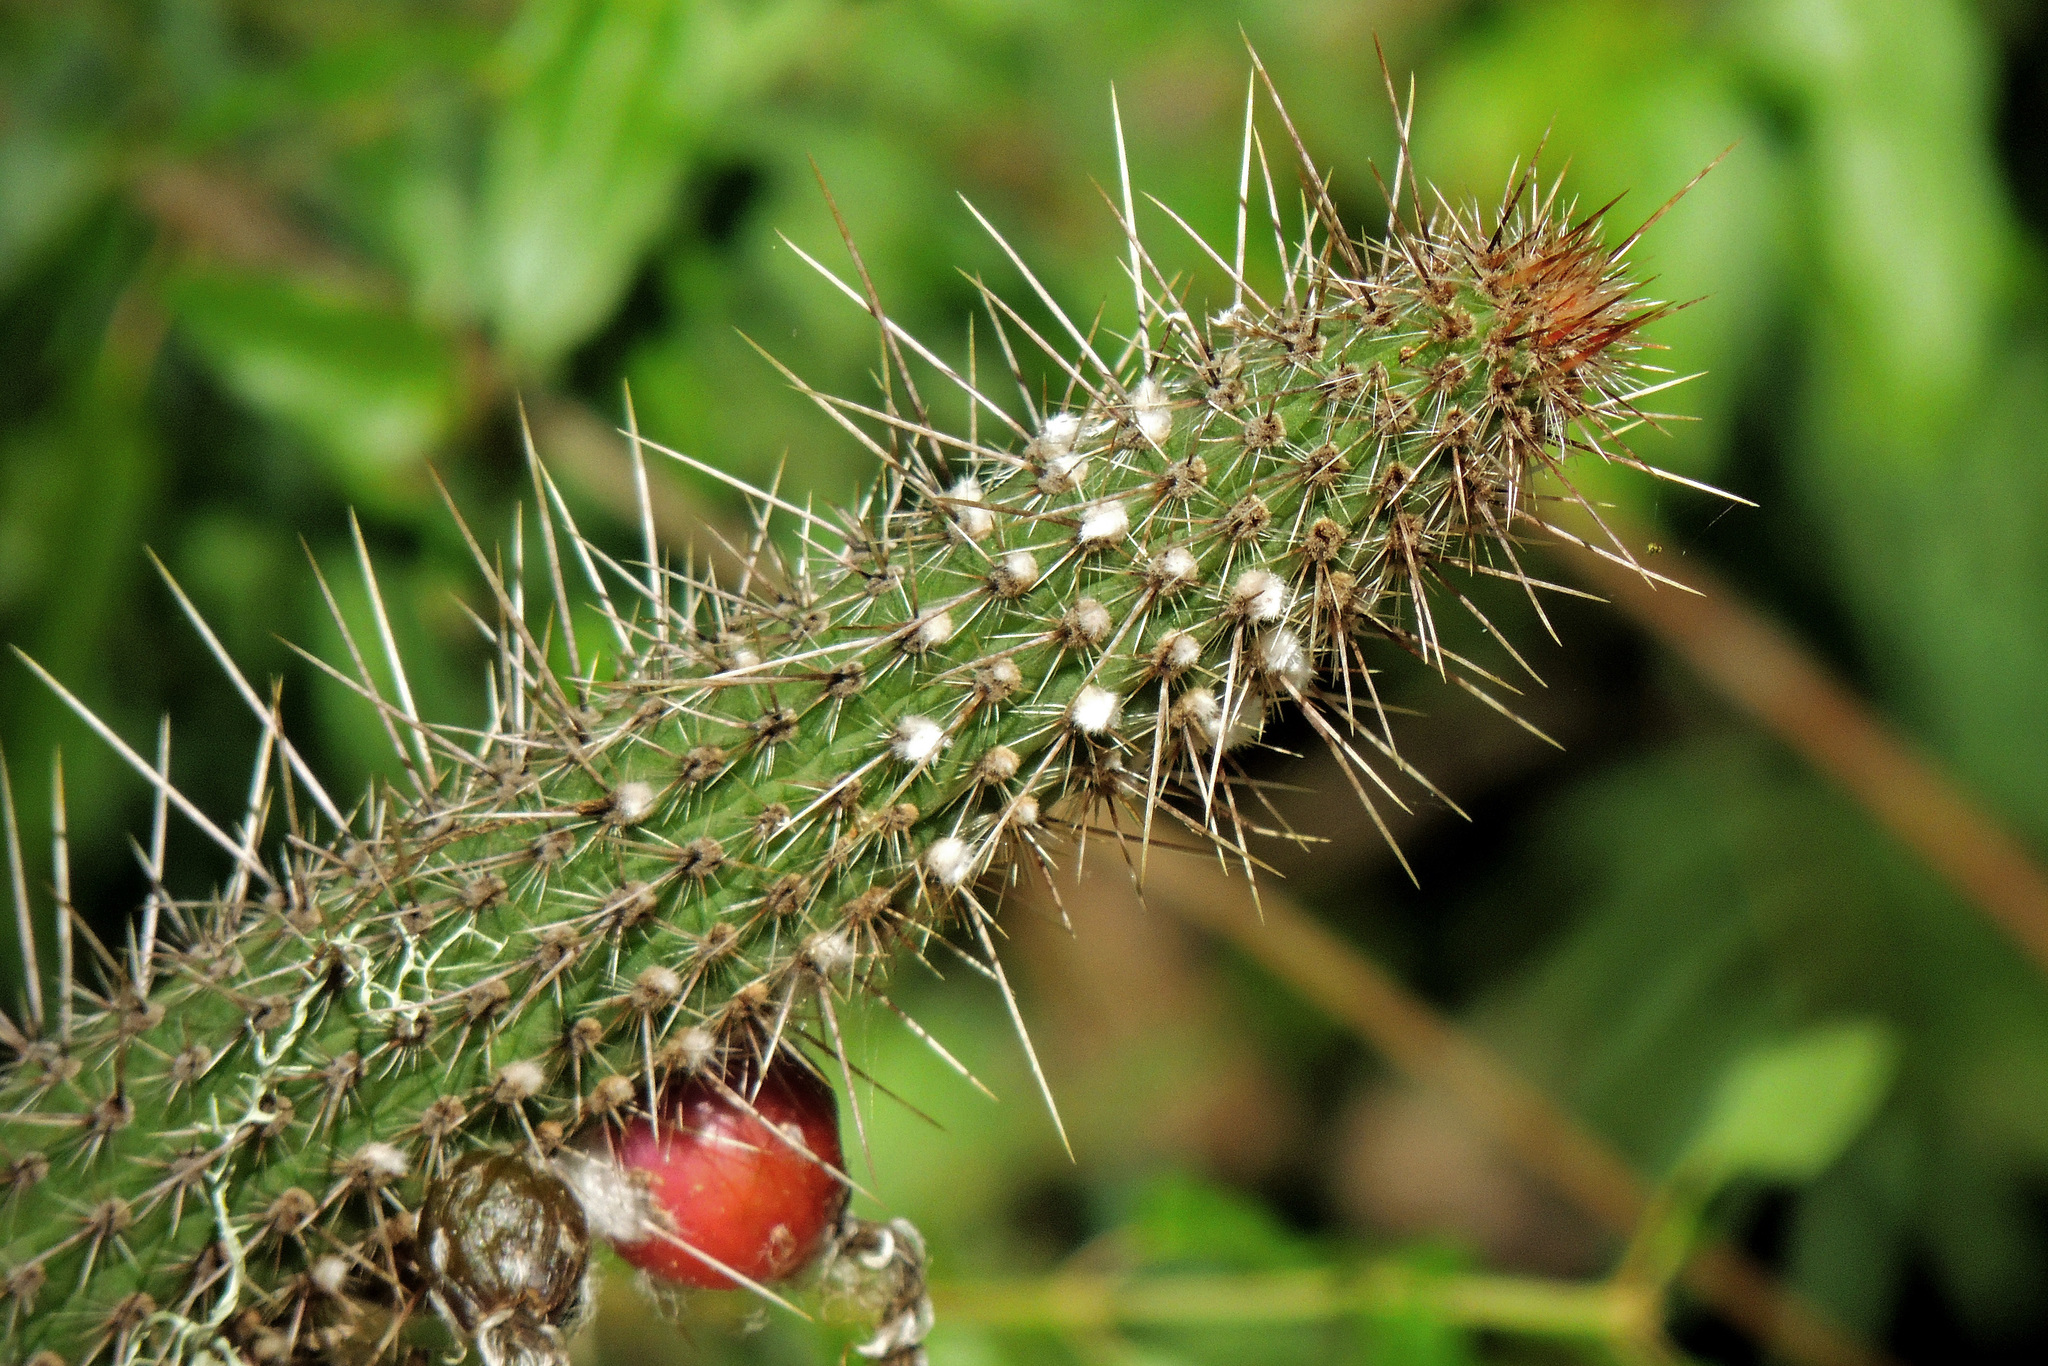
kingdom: Plantae
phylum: Tracheophyta
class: Magnoliopsida
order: Caryophyllales
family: Cactaceae
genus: Cleistocactus
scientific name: Cleistocactus baumannii
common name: Scarlet-bugler
